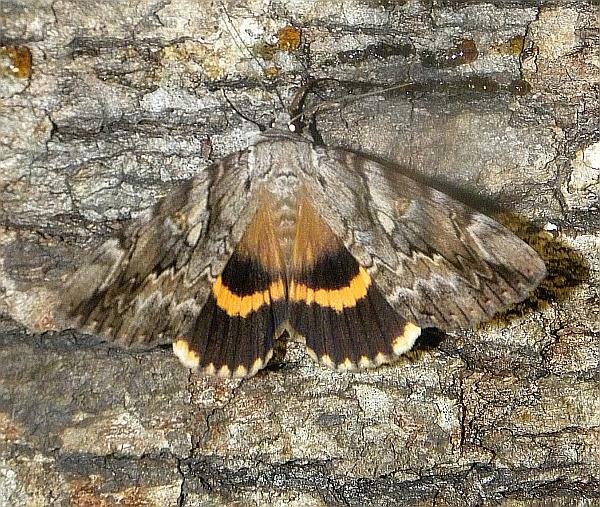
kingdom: Animalia
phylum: Arthropoda
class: Insecta
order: Lepidoptera
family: Erebidae
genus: Catocala
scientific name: Catocala cerogama
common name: Yellow banded underwing
